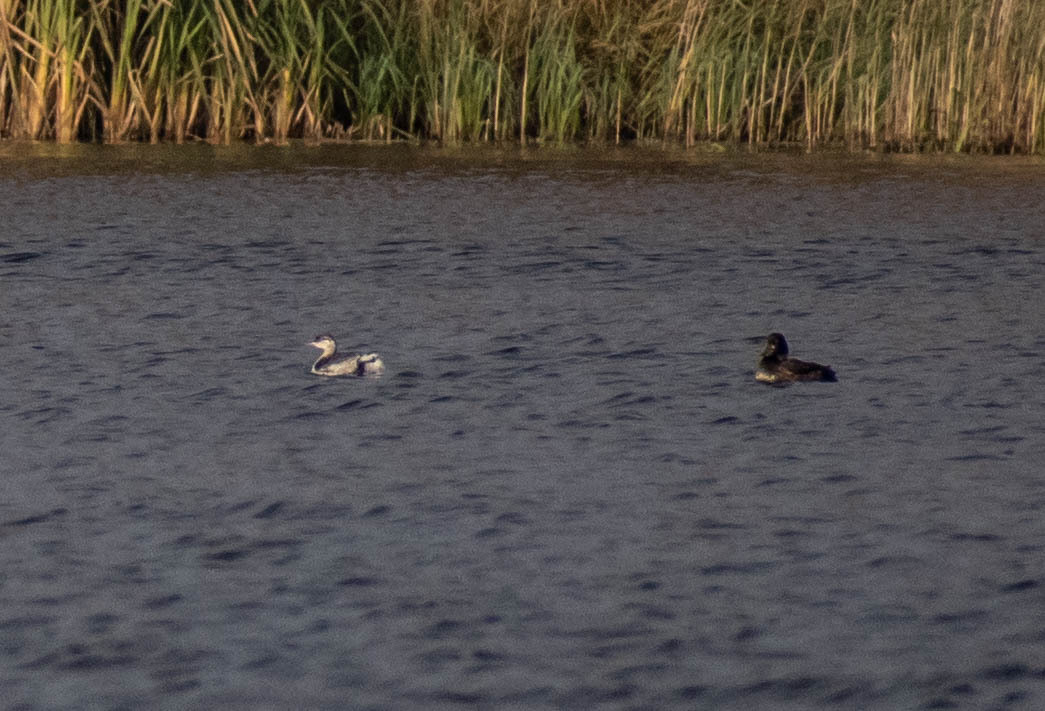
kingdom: Animalia
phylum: Chordata
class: Aves
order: Podicipediformes
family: Podicipedidae
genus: Podiceps
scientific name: Podiceps auritus
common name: Horned grebe
